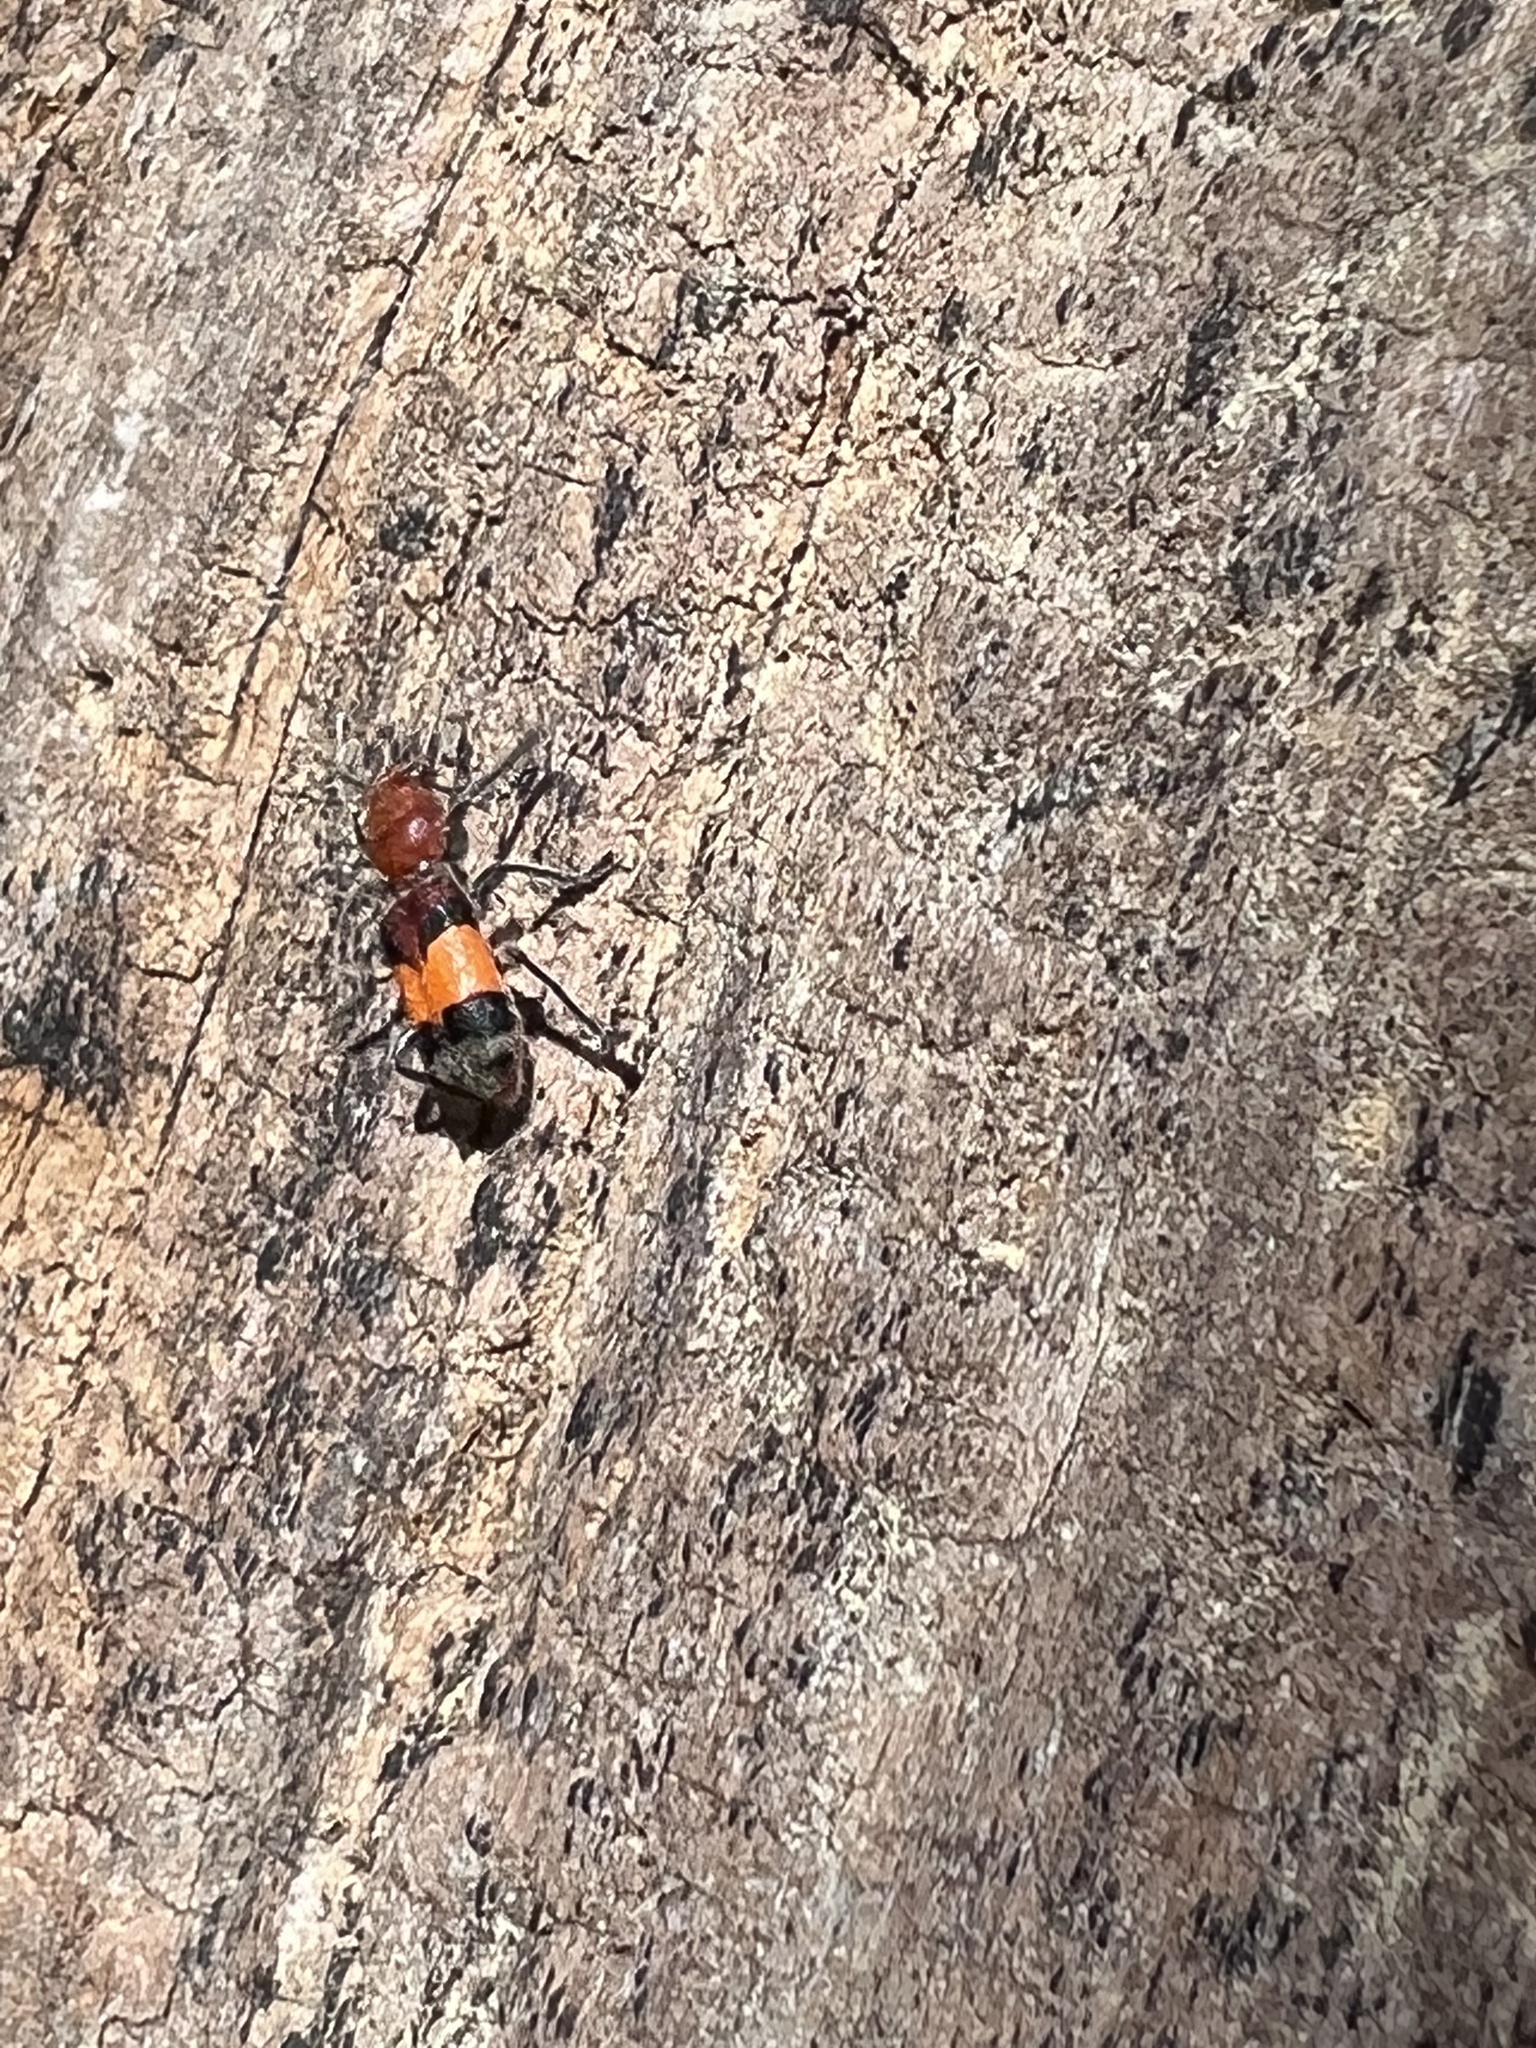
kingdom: Animalia
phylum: Arthropoda
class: Insecta
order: Coleoptera
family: Cleridae
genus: Enoclerus
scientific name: Enoclerus ichneumoneus
